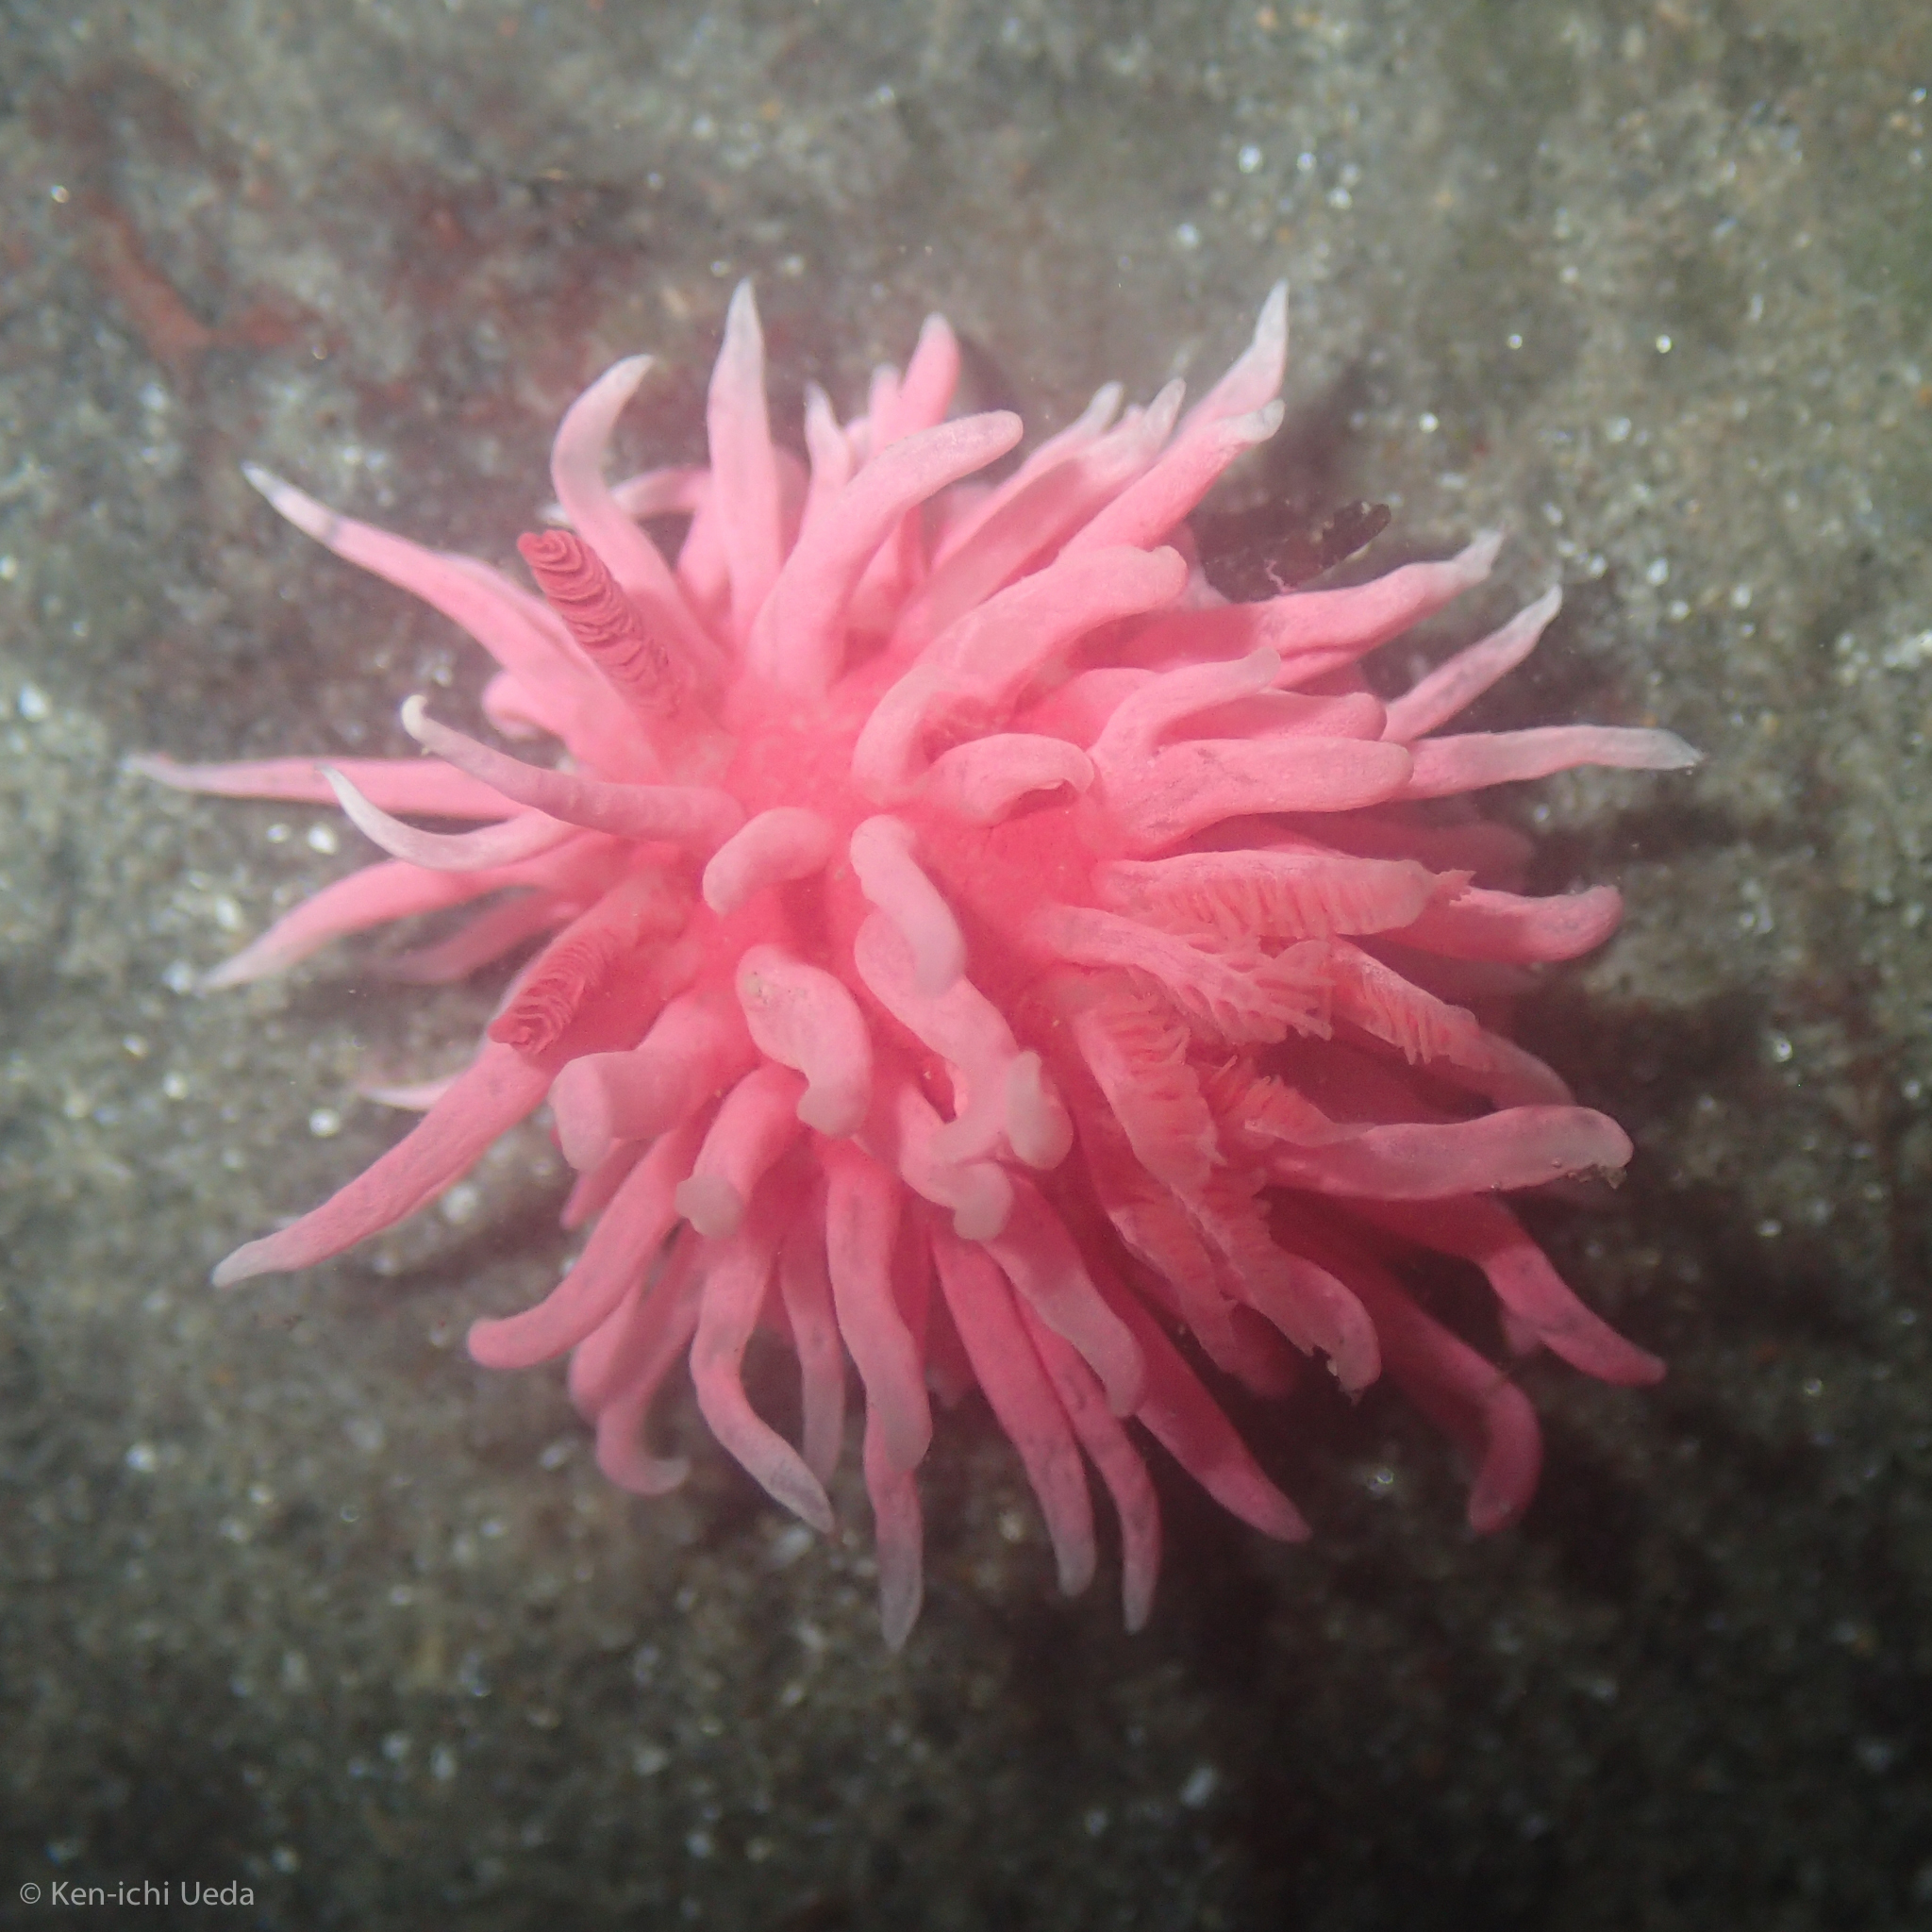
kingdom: Animalia
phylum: Mollusca
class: Gastropoda
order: Nudibranchia
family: Goniodorididae
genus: Okenia
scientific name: Okenia
